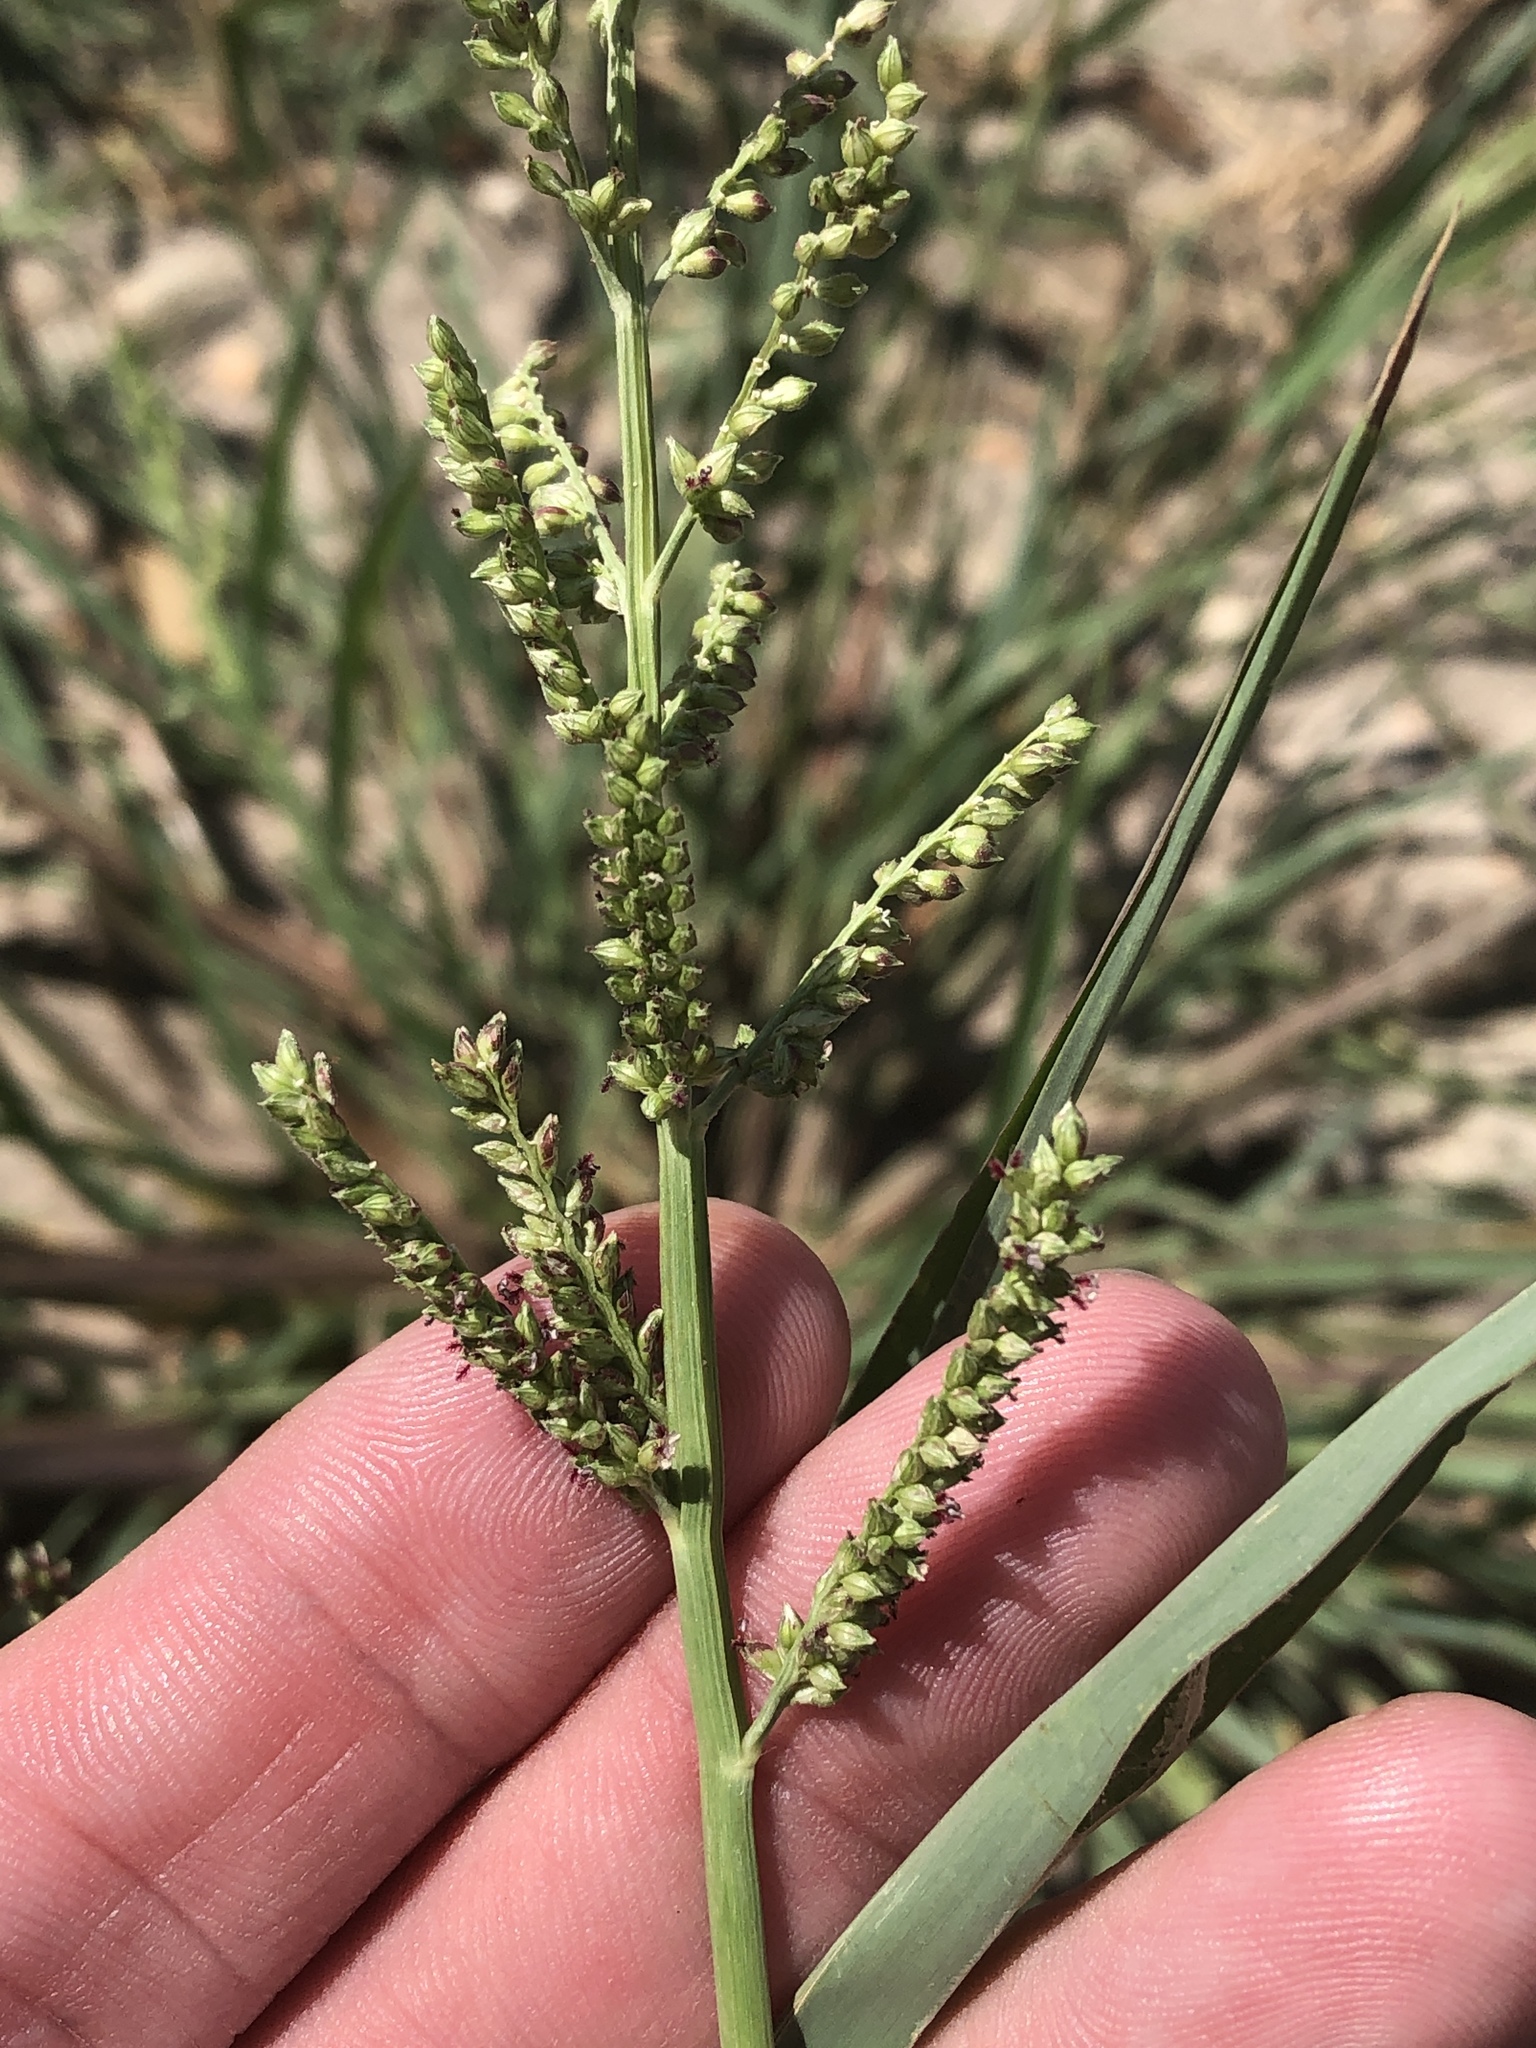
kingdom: Plantae
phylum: Tracheophyta
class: Liliopsida
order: Poales
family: Poaceae
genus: Echinochloa
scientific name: Echinochloa colonum
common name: Jungle rice
